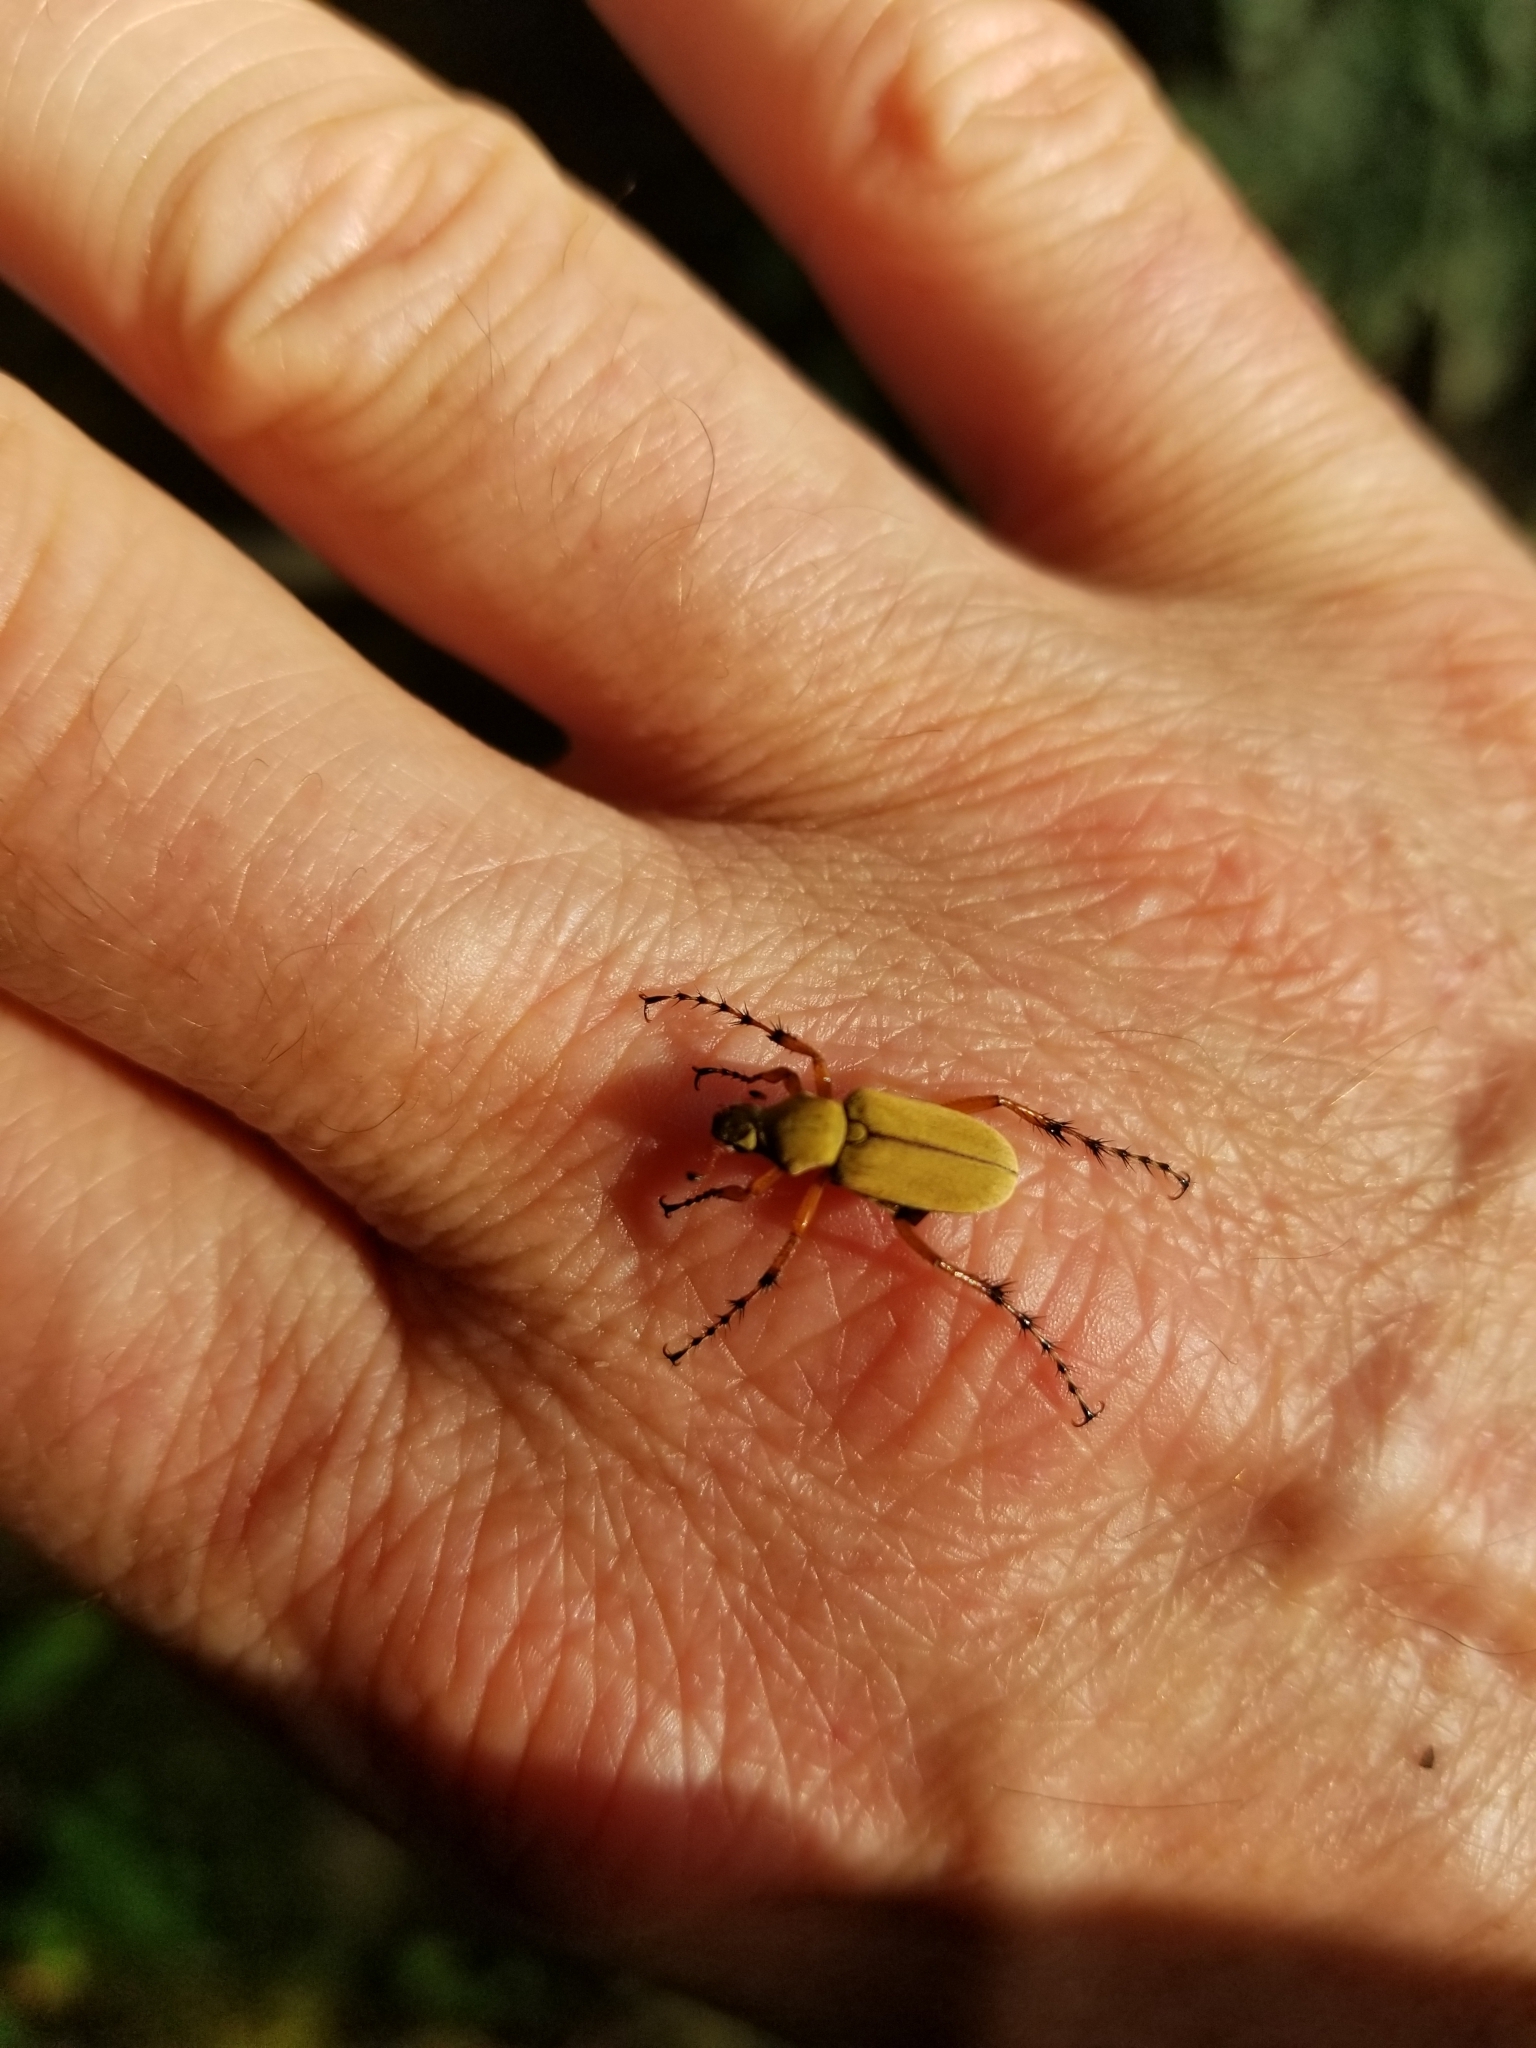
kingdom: Animalia
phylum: Arthropoda
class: Insecta
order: Coleoptera
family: Scarabaeidae
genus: Macrodactylus
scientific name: Macrodactylus subspinosus
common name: American rose chafer
